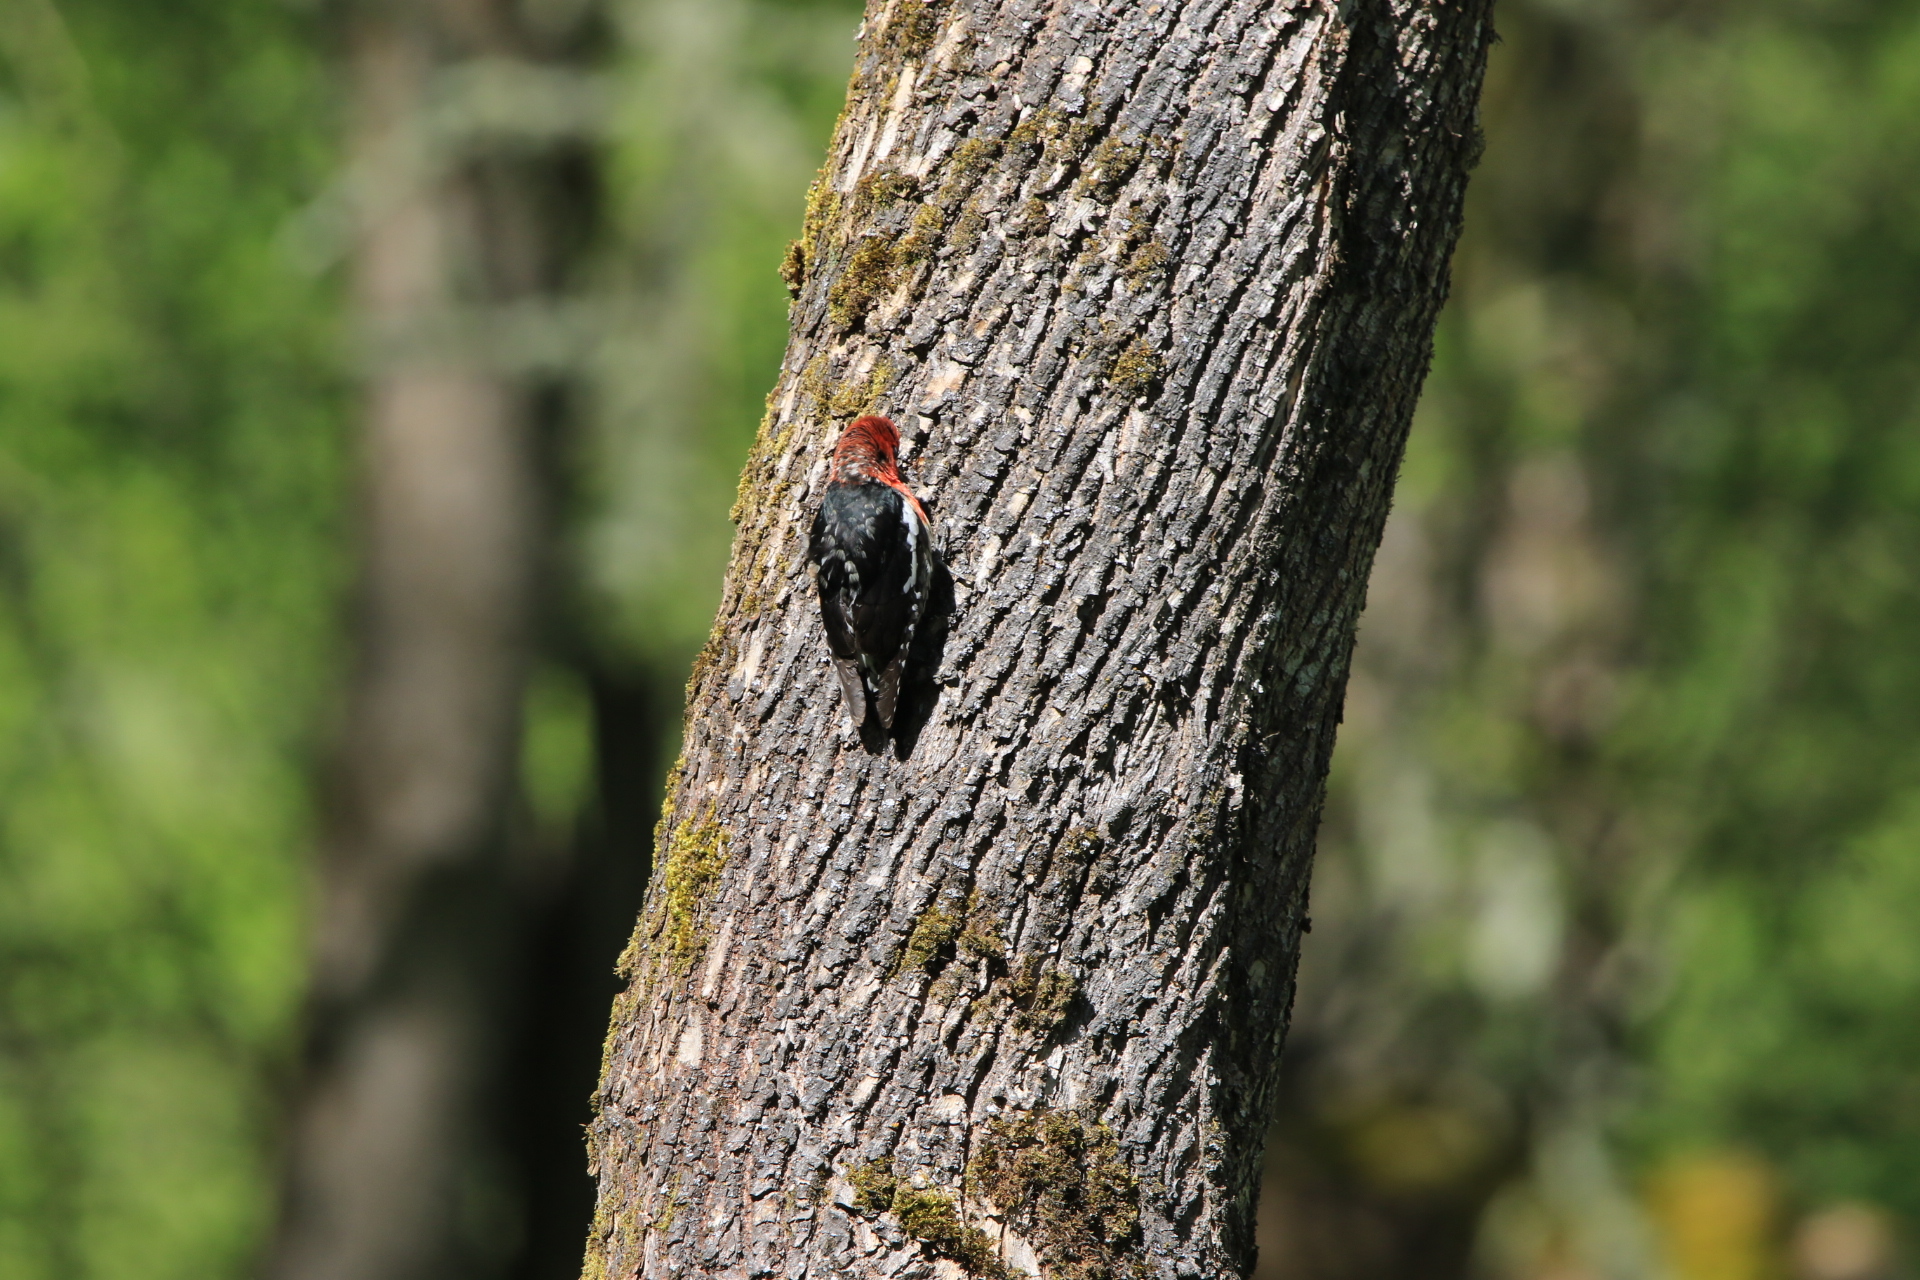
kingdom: Animalia
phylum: Chordata
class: Aves
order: Piciformes
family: Picidae
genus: Sphyrapicus
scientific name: Sphyrapicus ruber
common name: Red-breasted sapsucker
